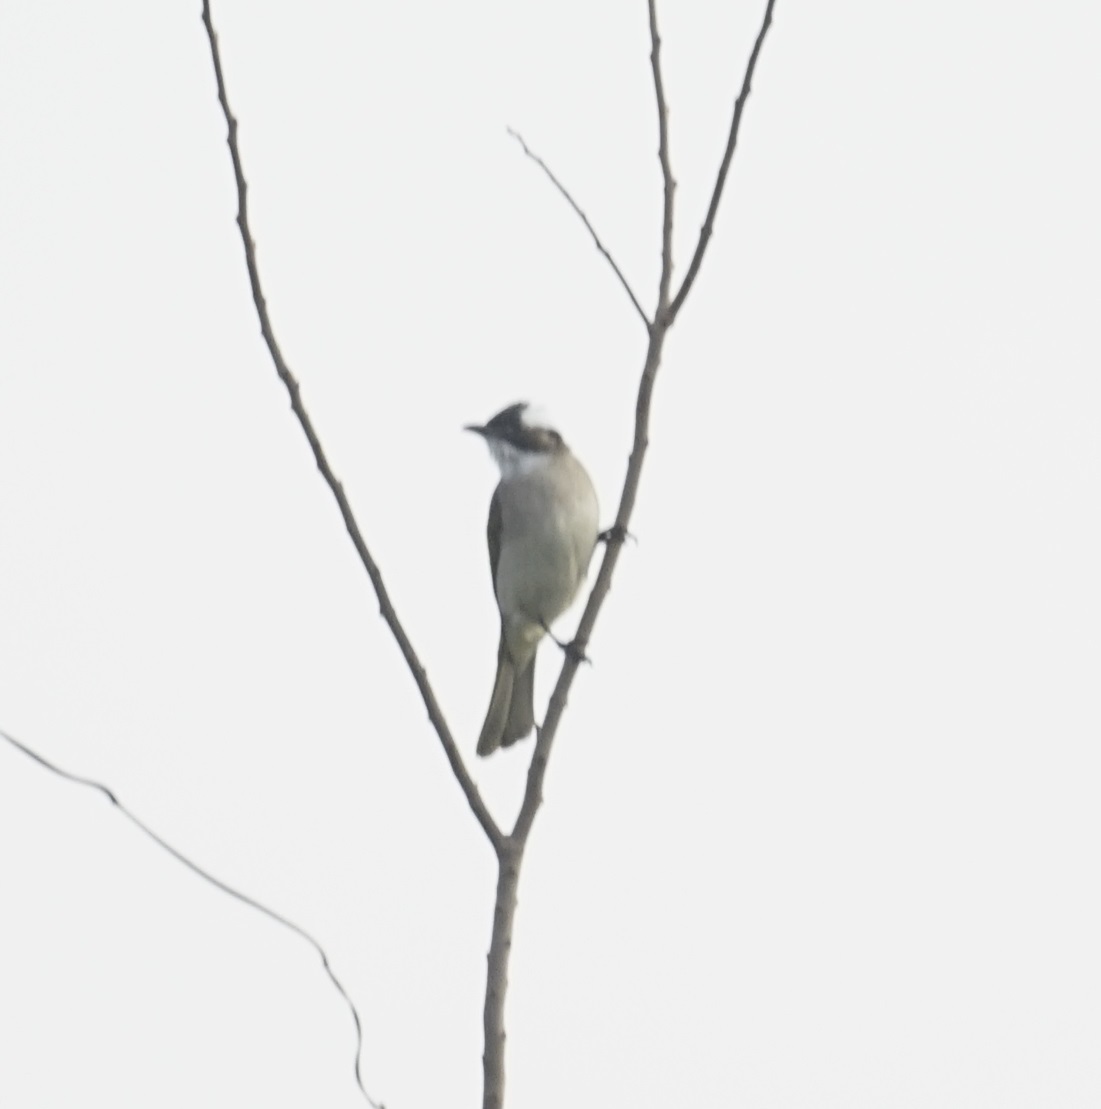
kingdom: Animalia
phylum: Chordata
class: Aves
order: Passeriformes
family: Pycnonotidae
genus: Pycnonotus
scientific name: Pycnonotus sinensis
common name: Light-vented bulbul
